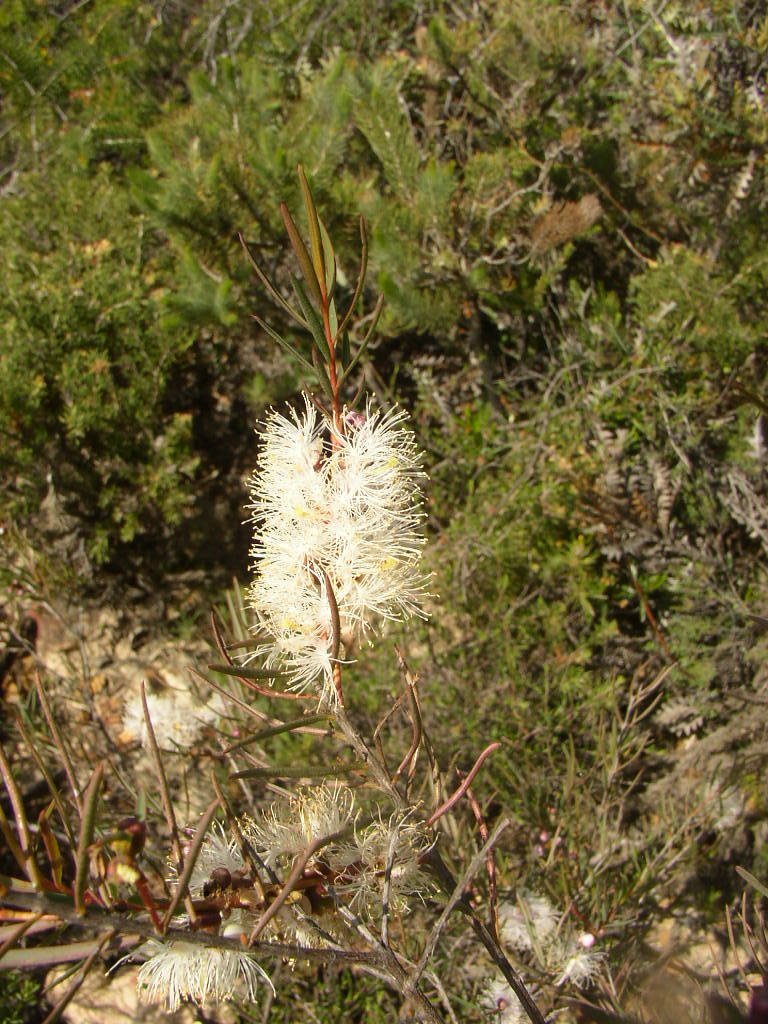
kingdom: Plantae
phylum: Tracheophyta
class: Magnoliopsida
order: Myrtales
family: Myrtaceae
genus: Melaleuca
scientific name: Melaleuca radula
